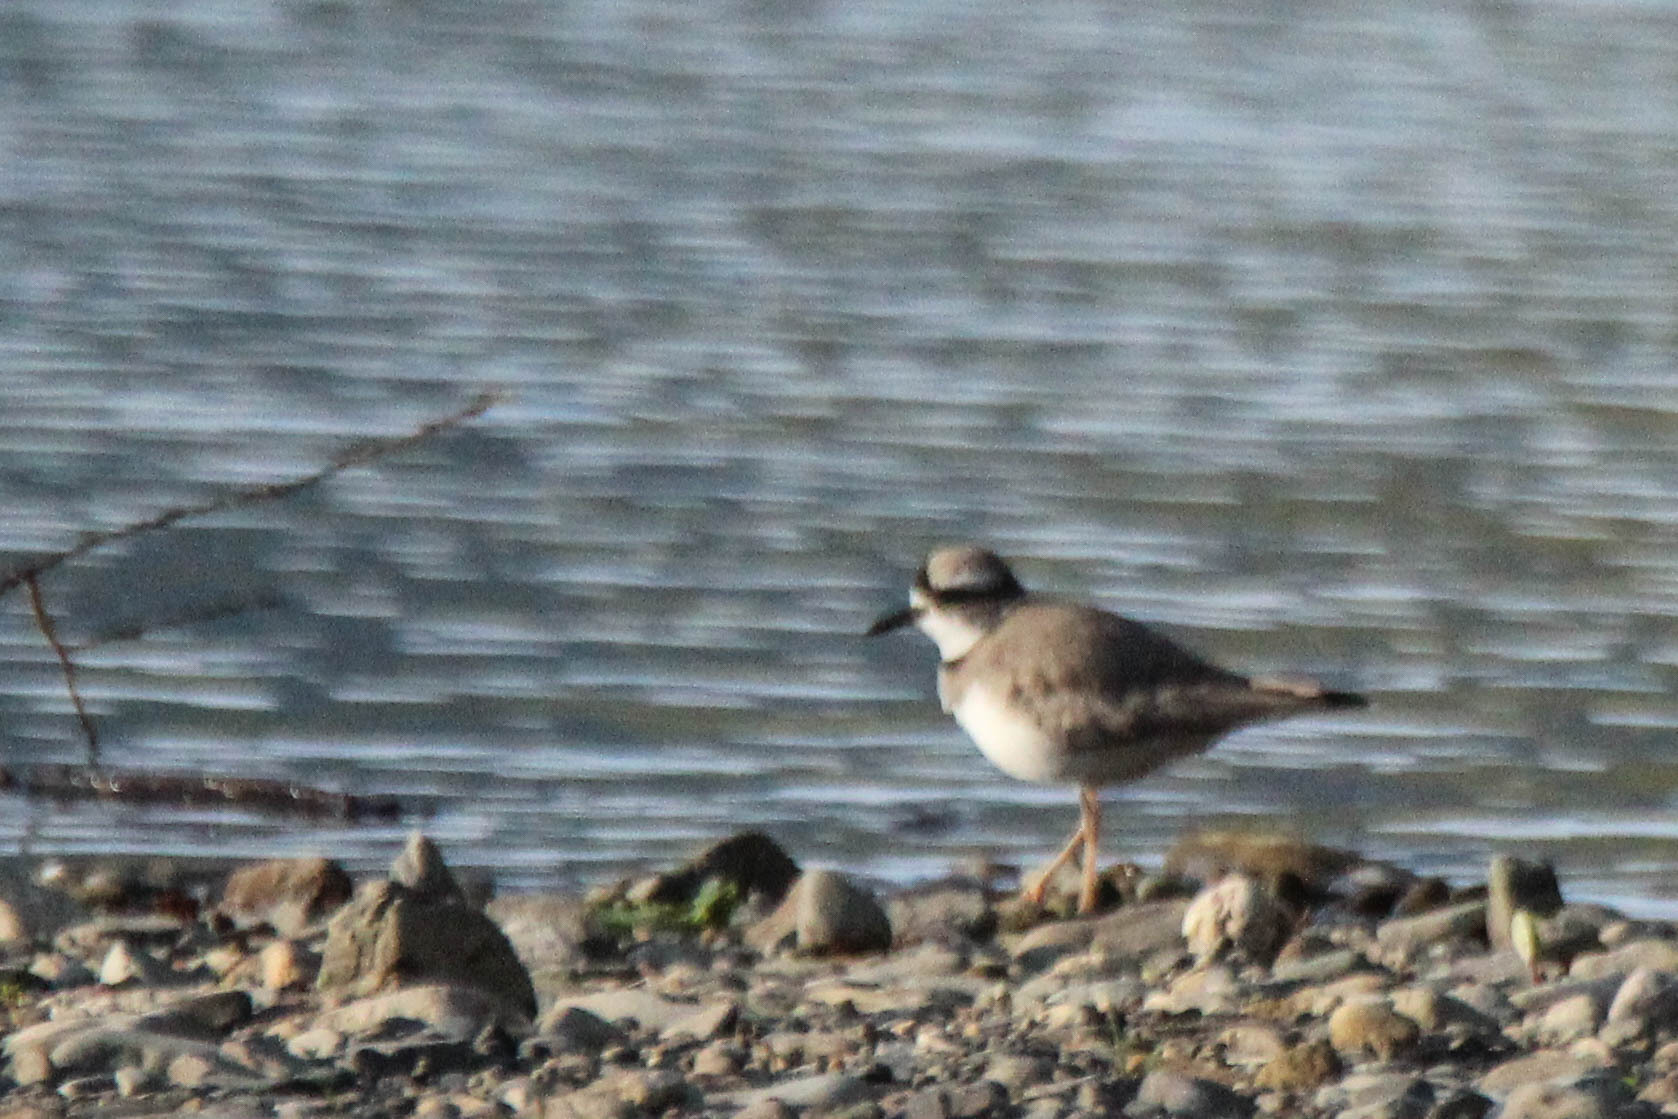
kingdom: Animalia
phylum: Chordata
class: Aves
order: Charadriiformes
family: Charadriidae
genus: Charadrius
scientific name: Charadrius placidus
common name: Long-billed plover
